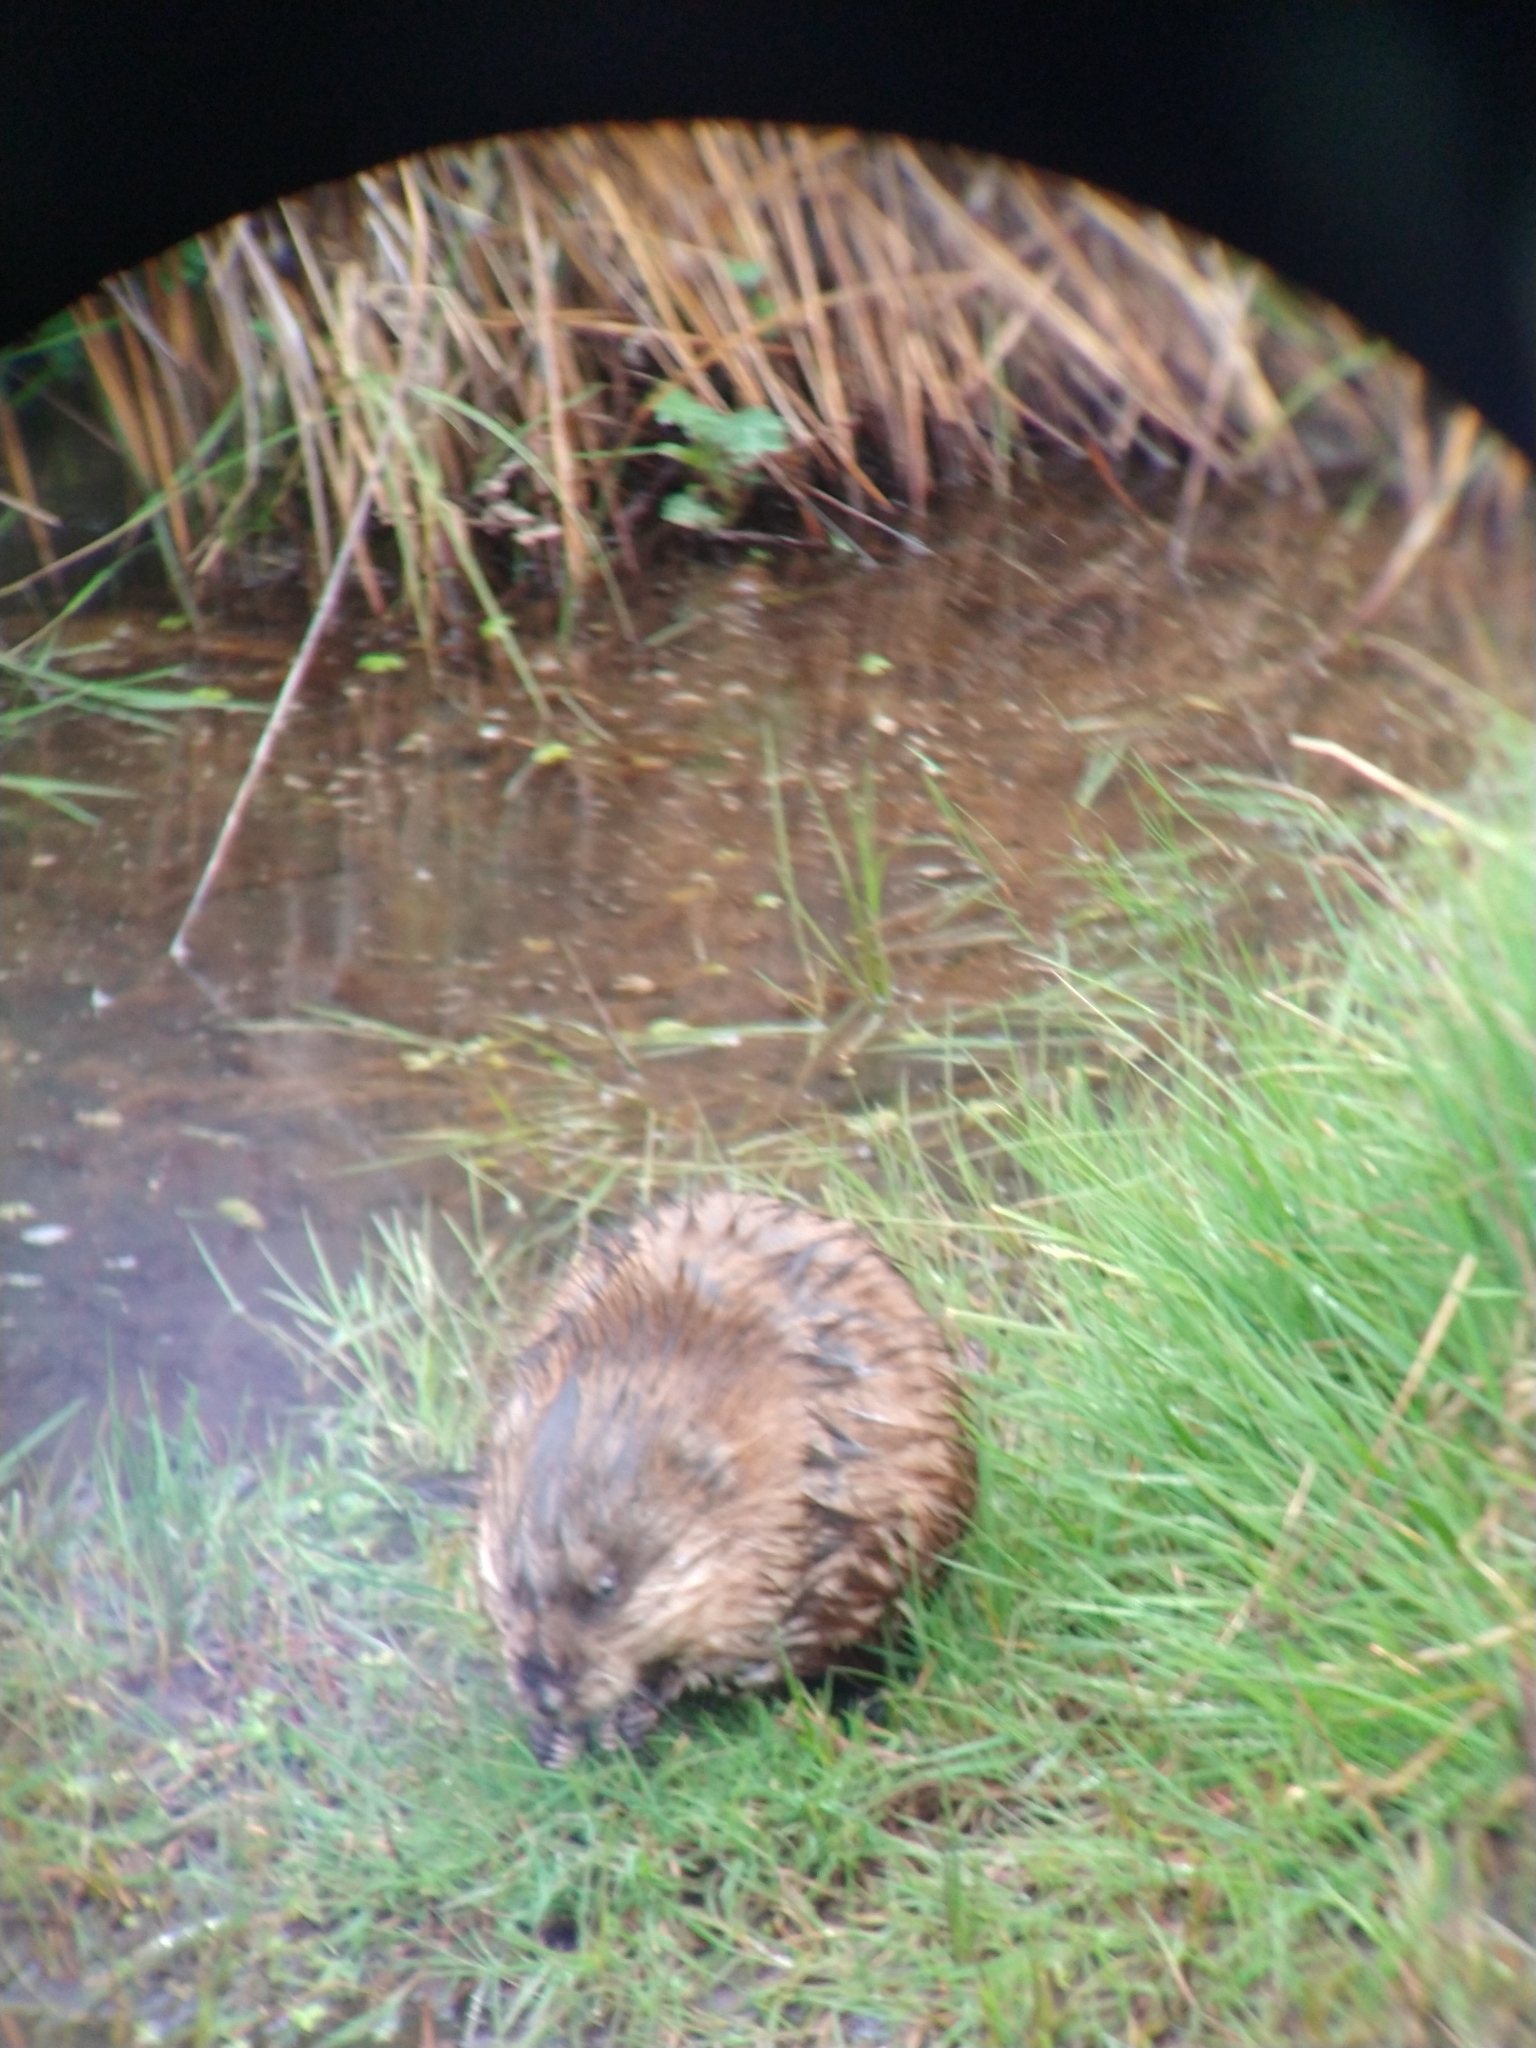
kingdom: Animalia
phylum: Chordata
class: Mammalia
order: Rodentia
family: Cricetidae
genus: Ondatra
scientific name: Ondatra zibethicus
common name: Muskrat
